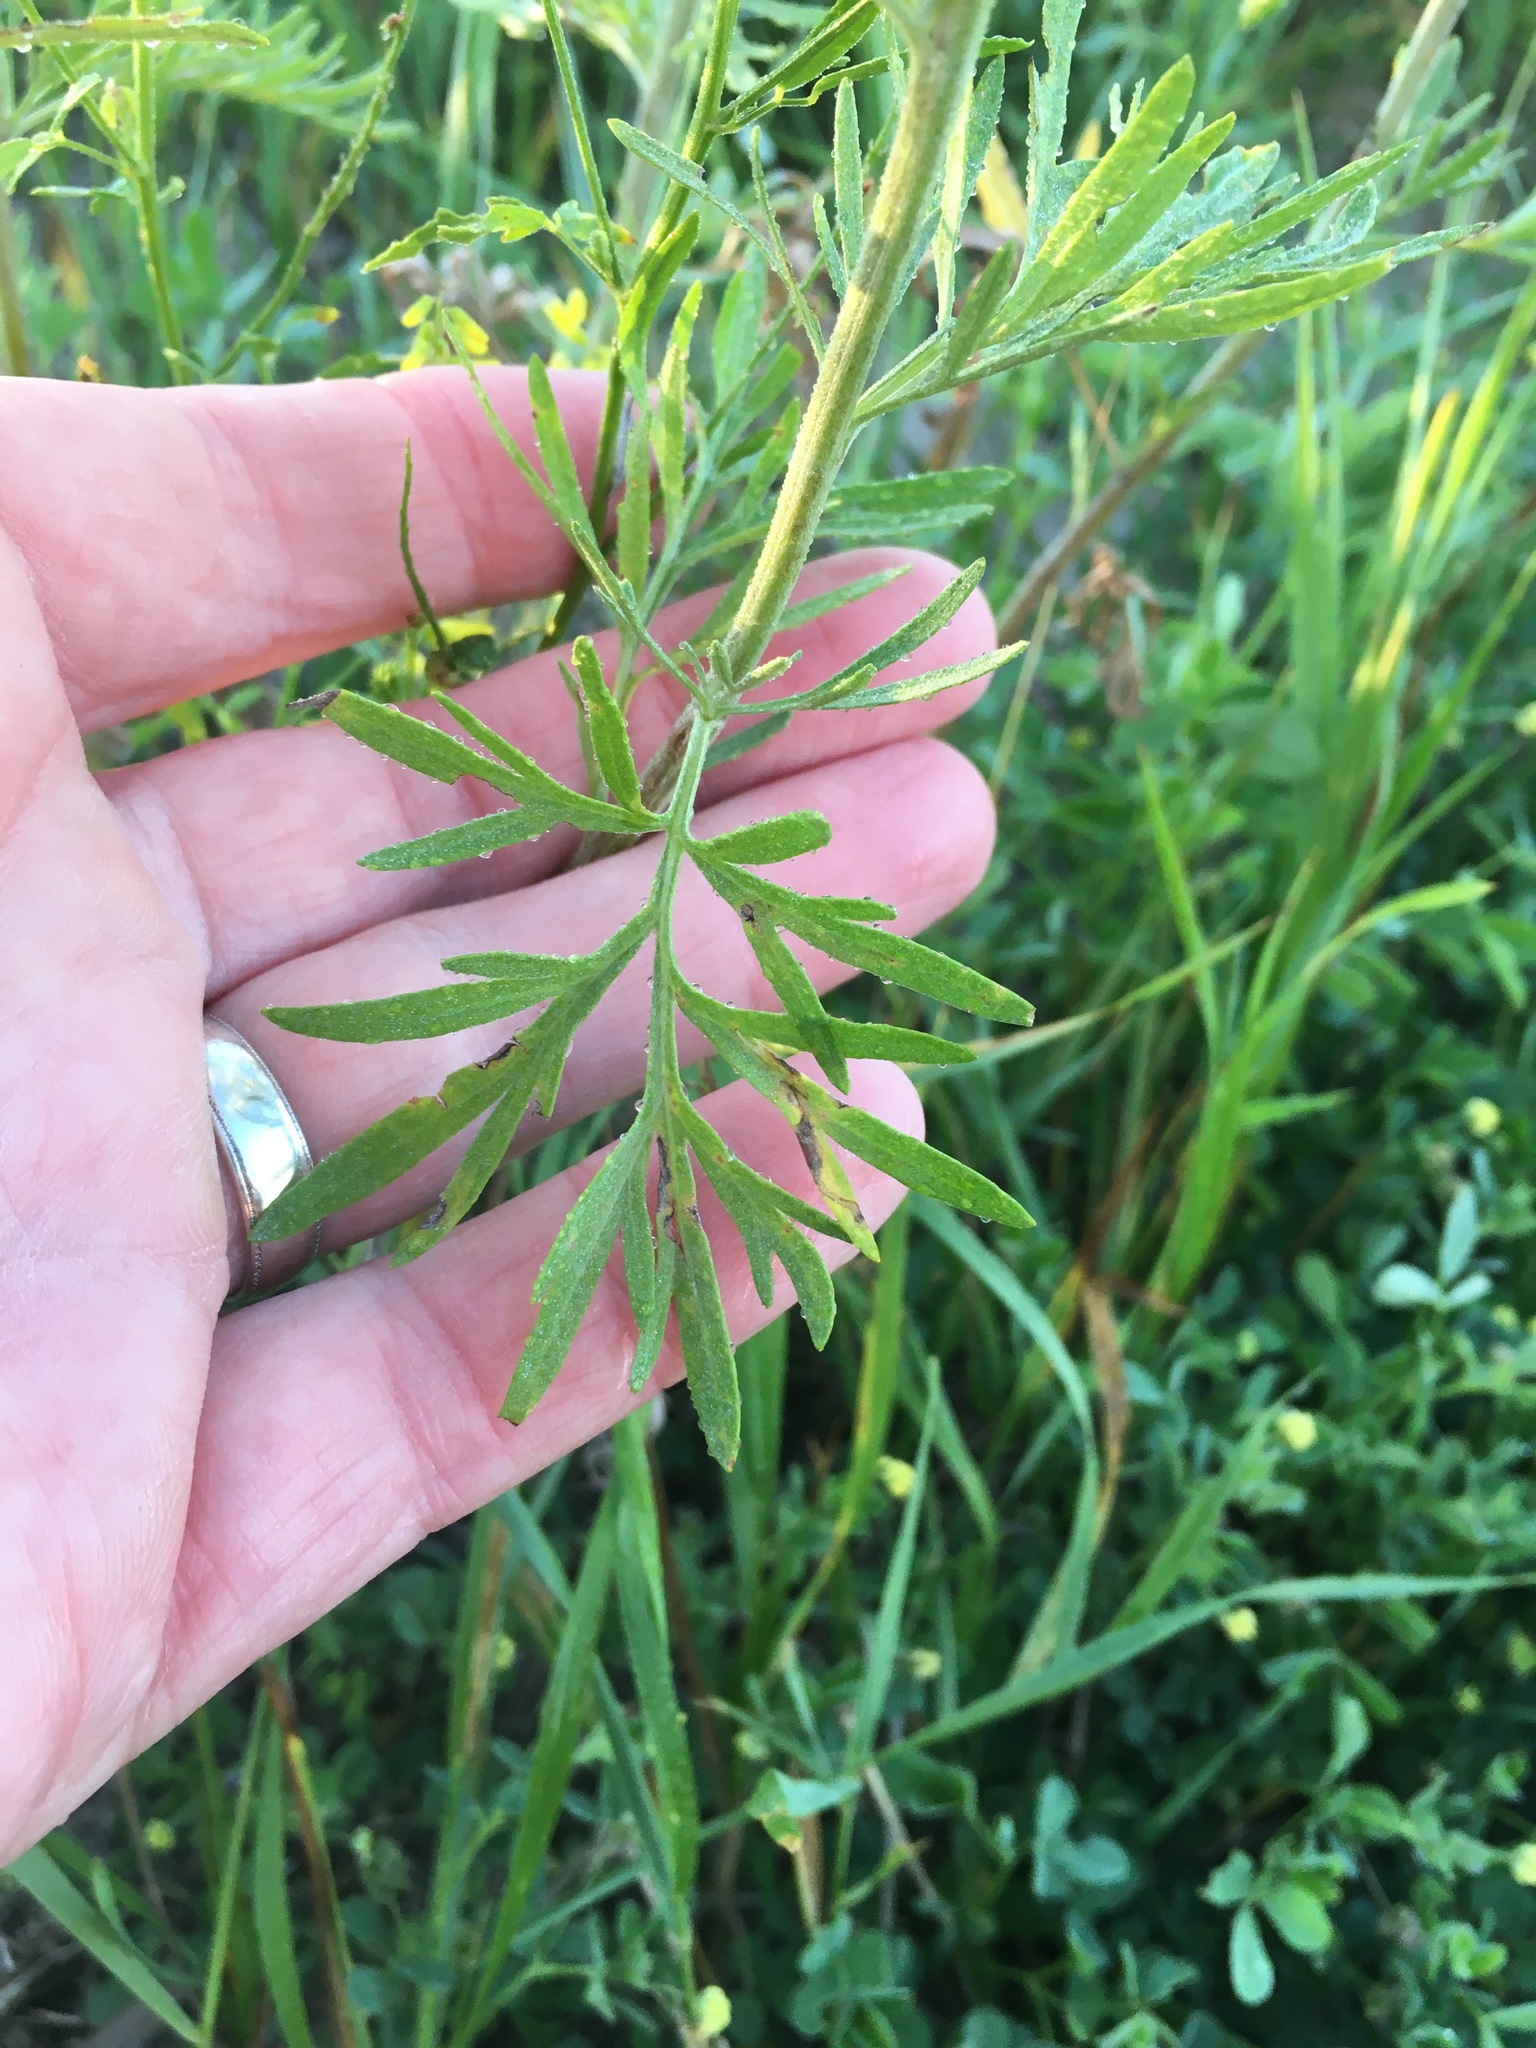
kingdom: Plantae
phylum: Tracheophyta
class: Magnoliopsida
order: Asterales
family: Asteraceae
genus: Artemisia
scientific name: Artemisia absinthium
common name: Wormwood
